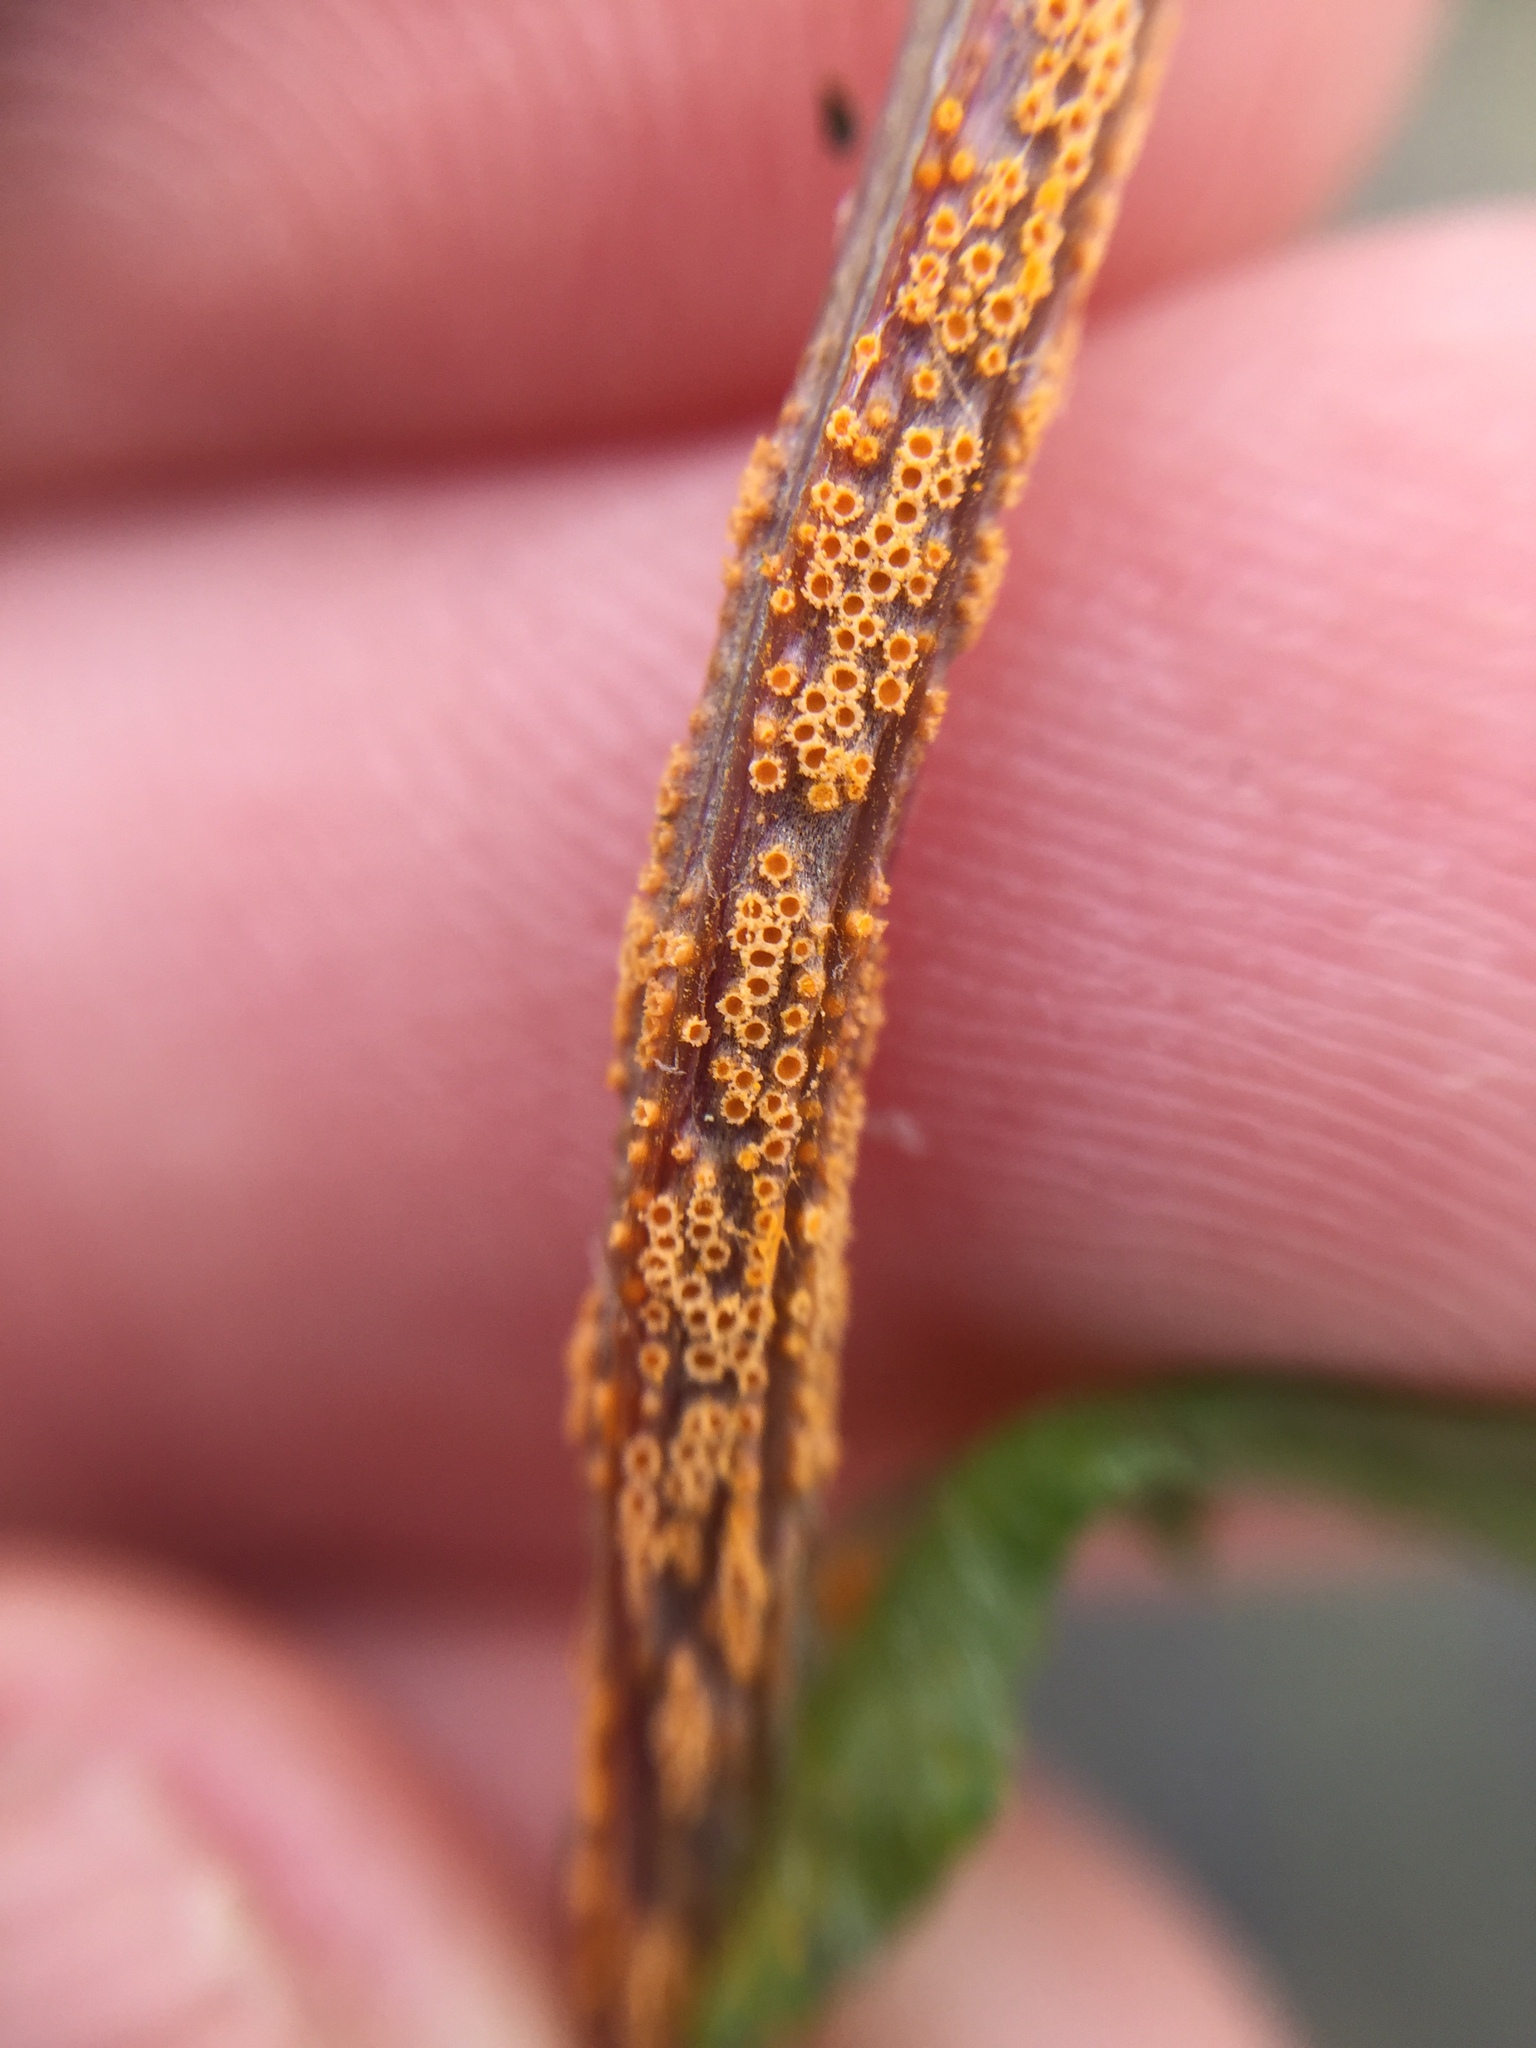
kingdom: Fungi
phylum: Basidiomycota
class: Pucciniomycetes
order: Pucciniales
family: Pucciniaceae
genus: Puccinia
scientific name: Puccinia lagenophorae
